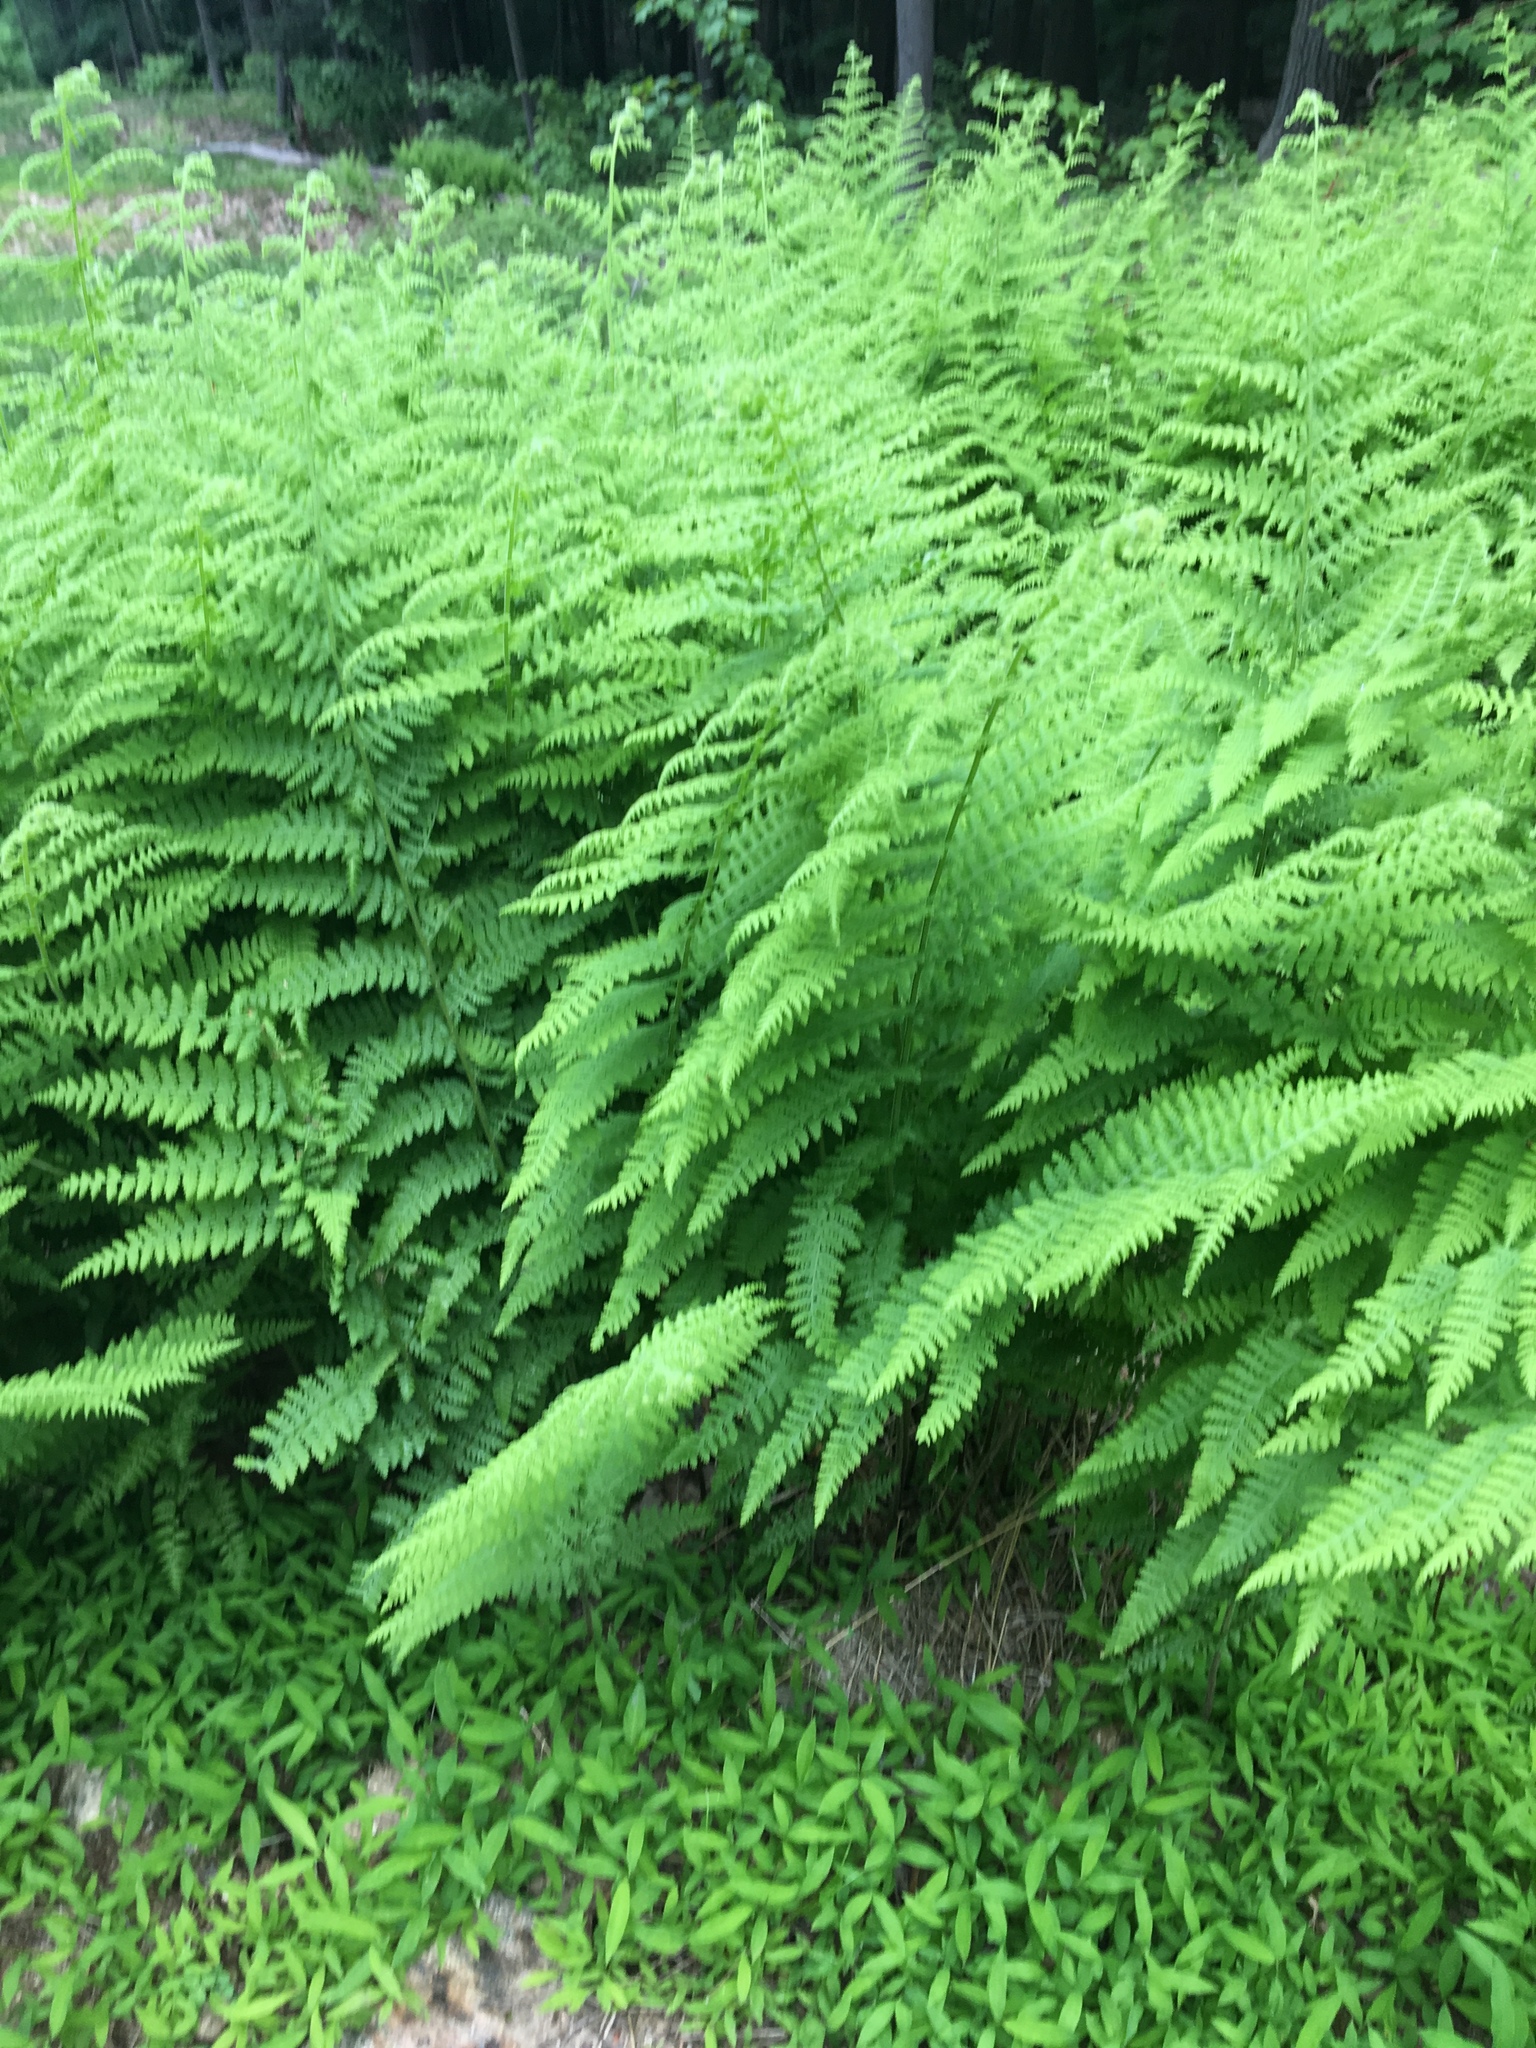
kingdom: Plantae
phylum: Tracheophyta
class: Polypodiopsida
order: Polypodiales
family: Dennstaedtiaceae
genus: Sitobolium
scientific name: Sitobolium punctilobum
